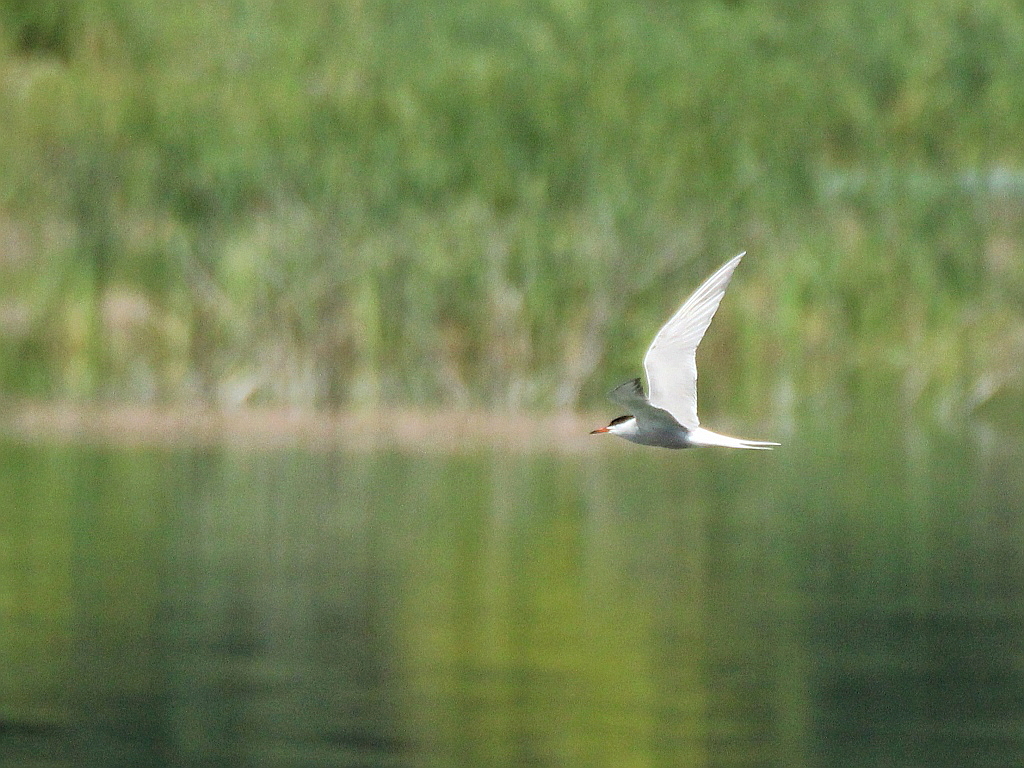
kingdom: Animalia
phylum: Chordata
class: Aves
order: Charadriiformes
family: Laridae
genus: Sterna
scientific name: Sterna hirundo
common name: Common tern
